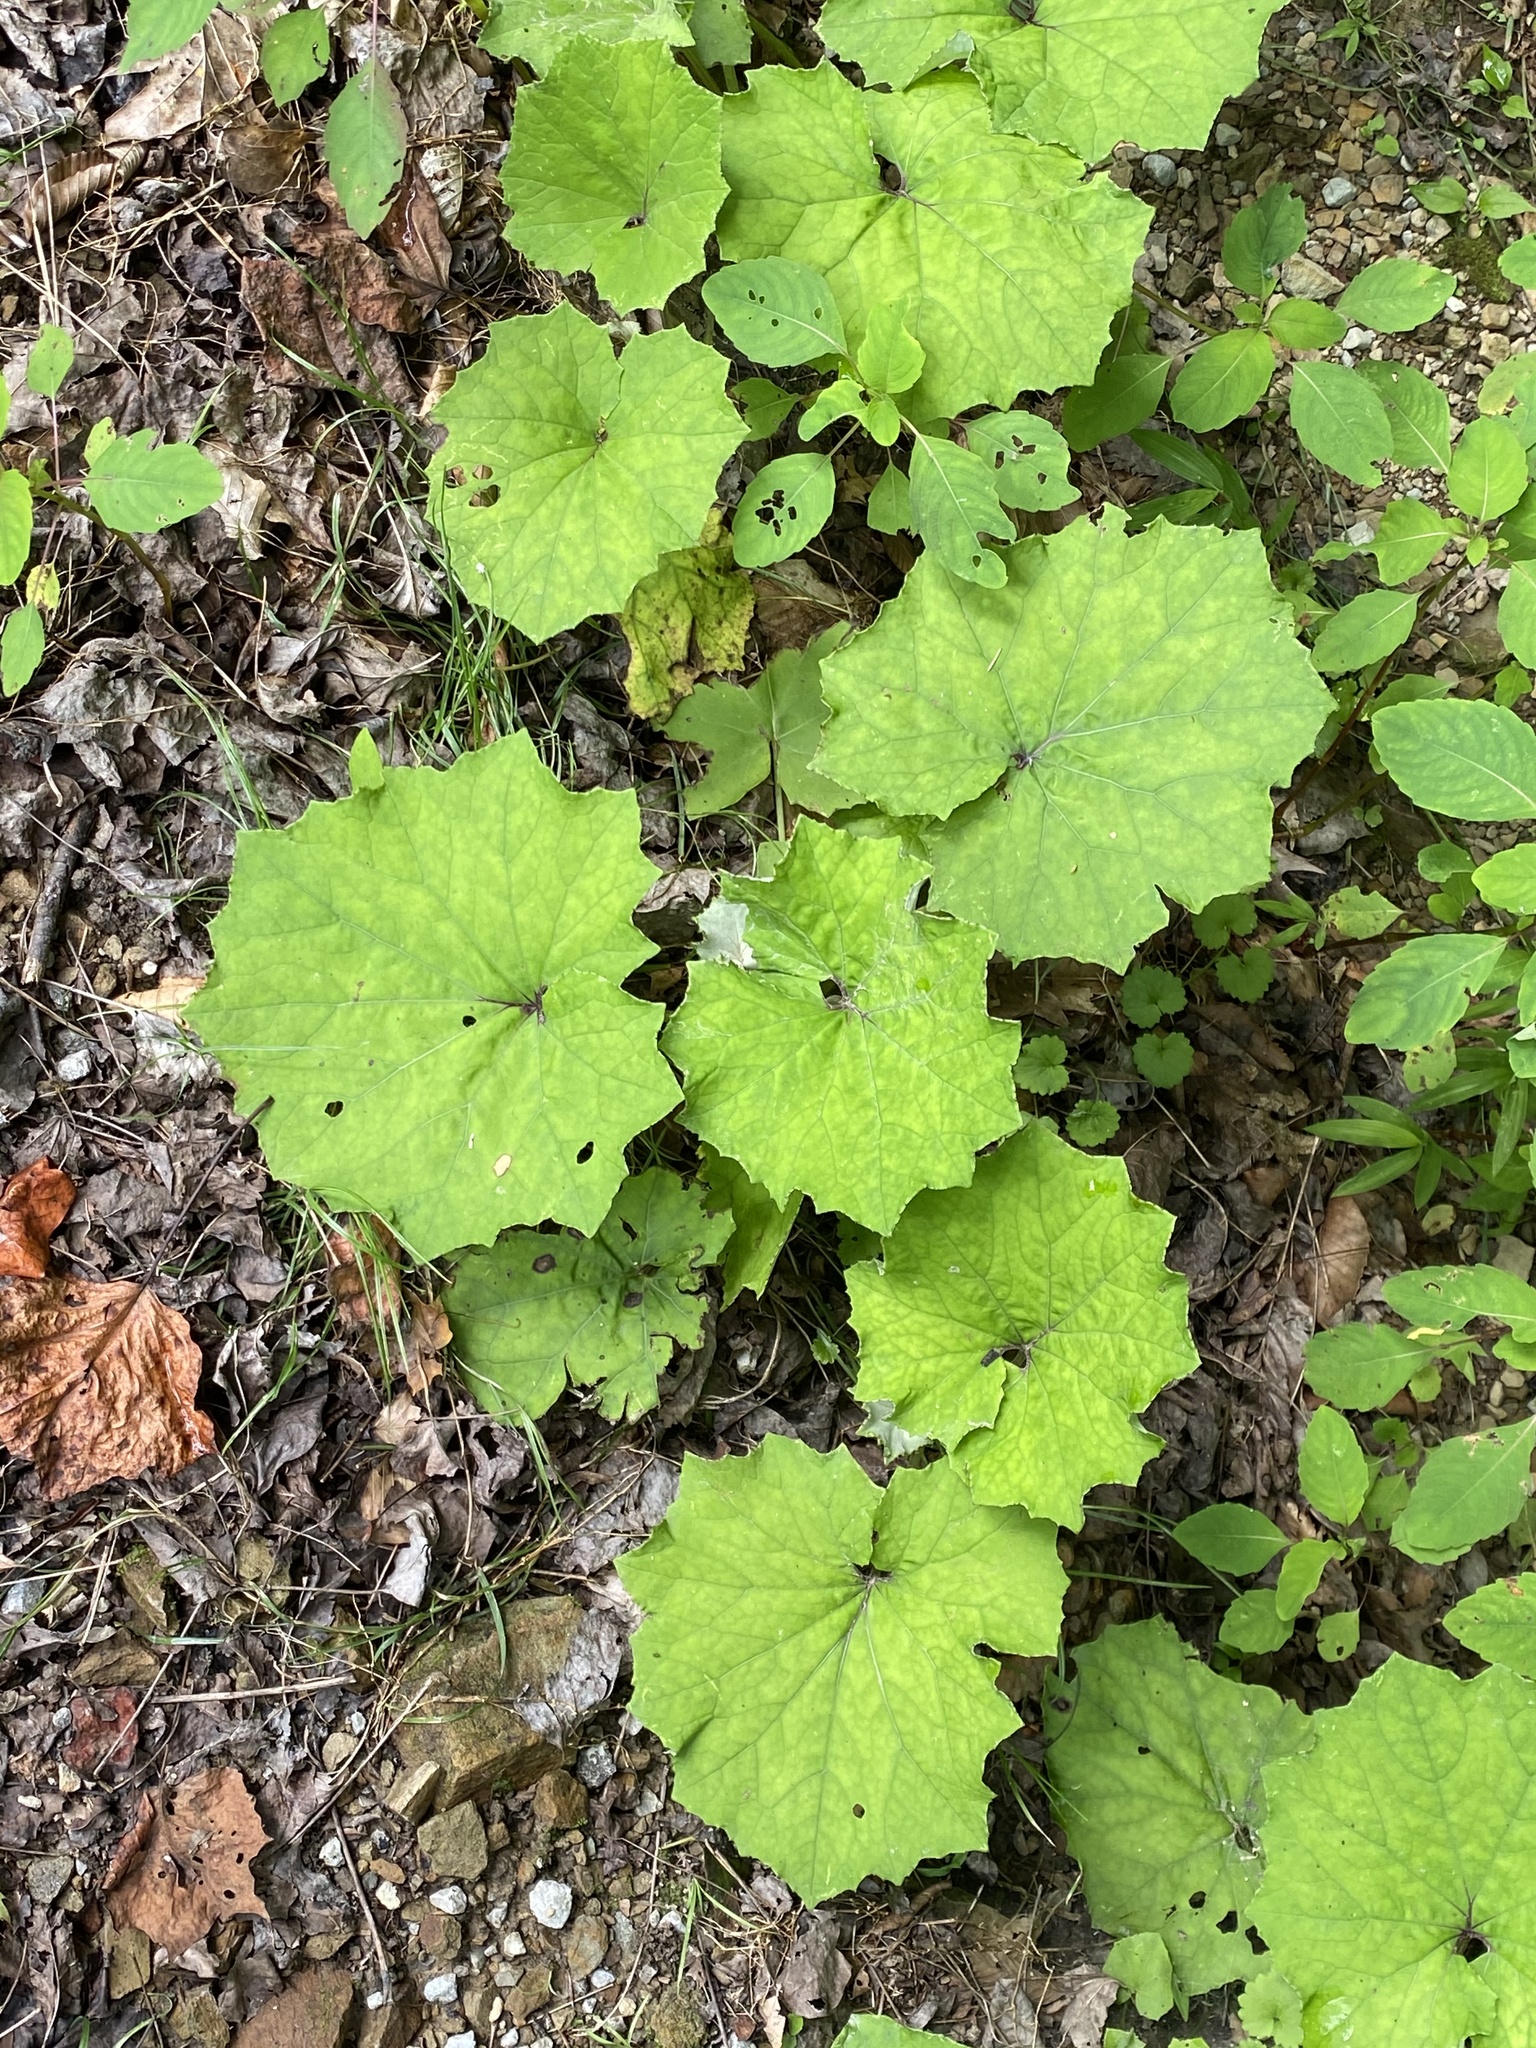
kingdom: Plantae
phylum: Tracheophyta
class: Magnoliopsida
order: Asterales
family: Asteraceae
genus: Tussilago
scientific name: Tussilago farfara
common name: Coltsfoot
